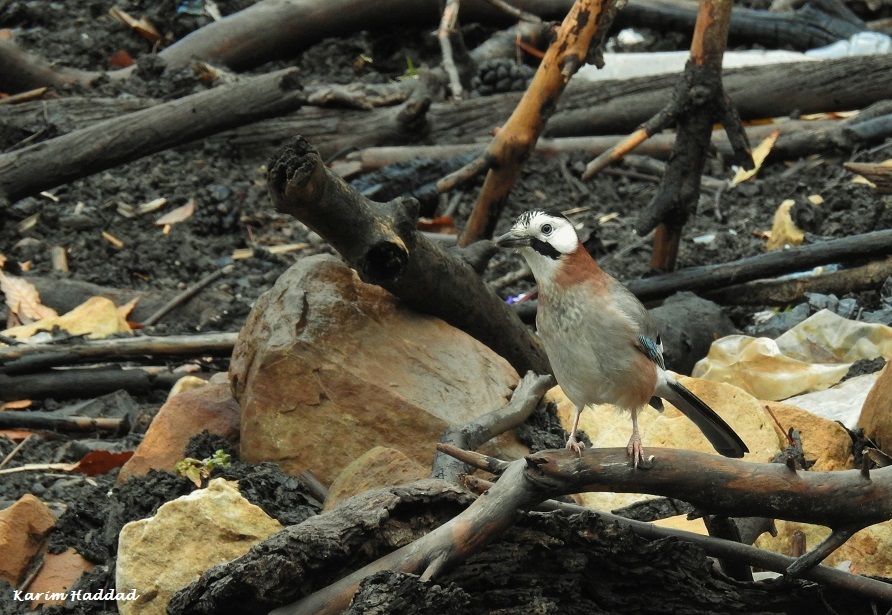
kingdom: Animalia
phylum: Chordata
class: Aves
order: Passeriformes
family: Corvidae
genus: Garrulus
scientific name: Garrulus glandarius
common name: Eurasian jay
